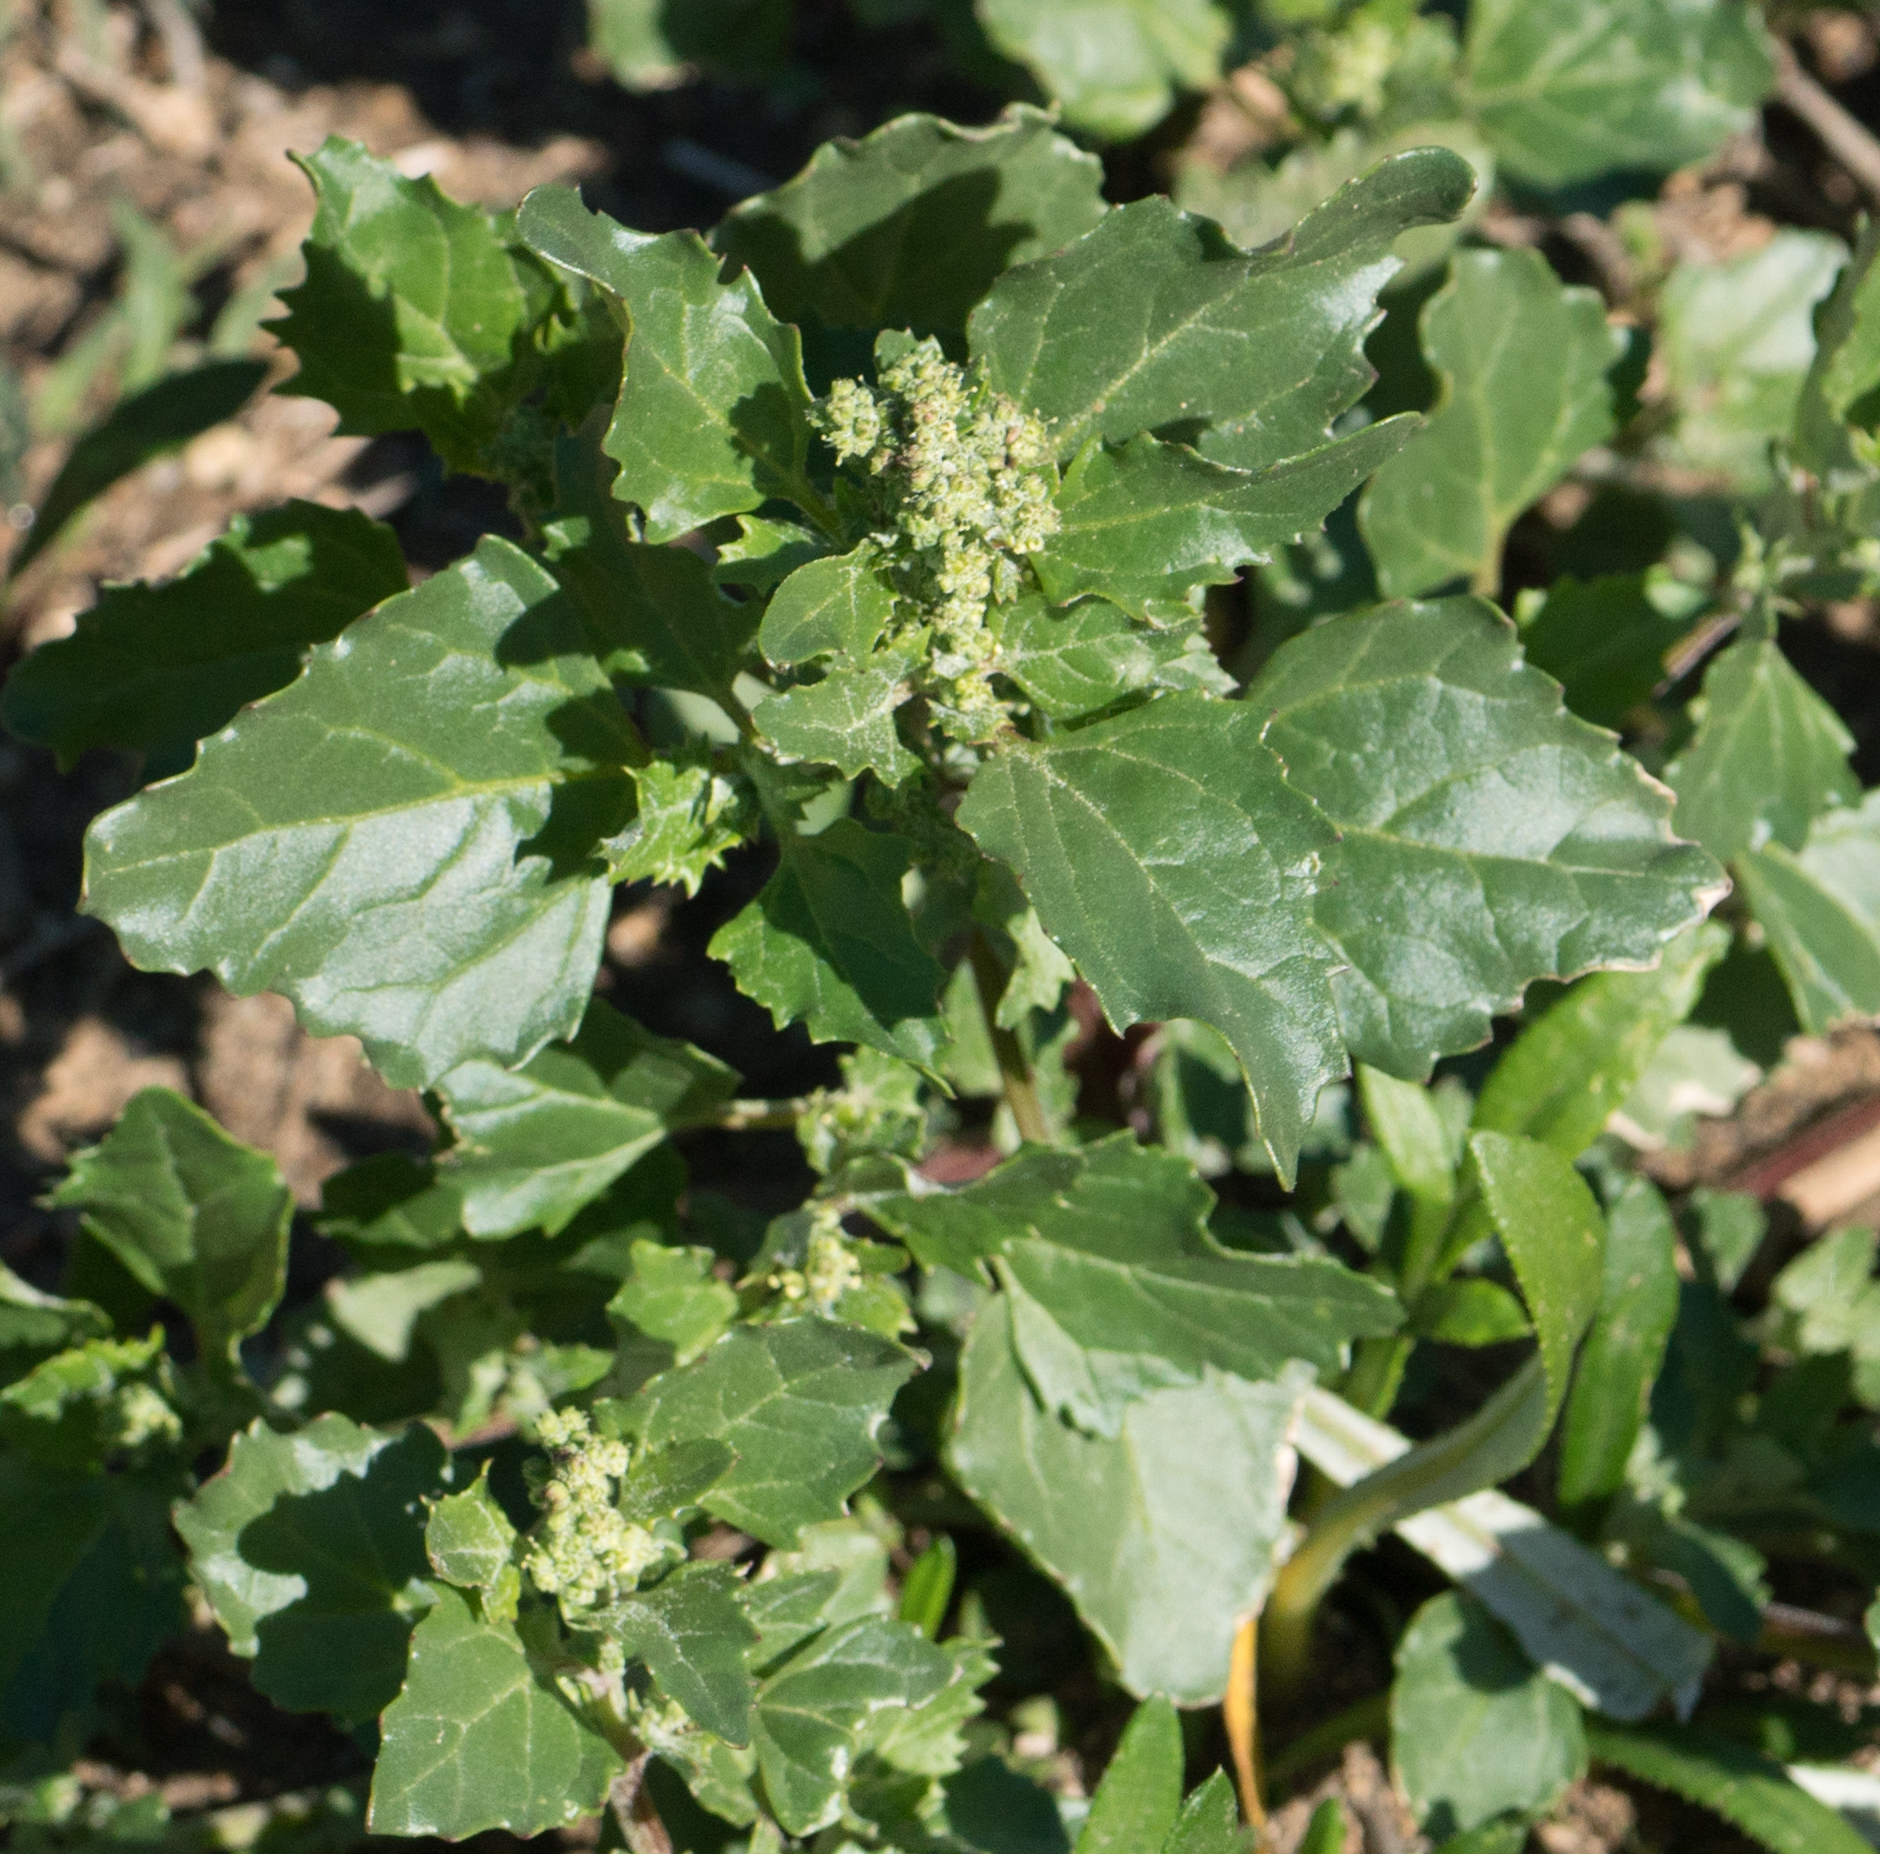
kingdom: Plantae
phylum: Tracheophyta
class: Magnoliopsida
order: Caryophyllales
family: Amaranthaceae
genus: Chenopodiastrum
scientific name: Chenopodiastrum murale
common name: Sowbane
